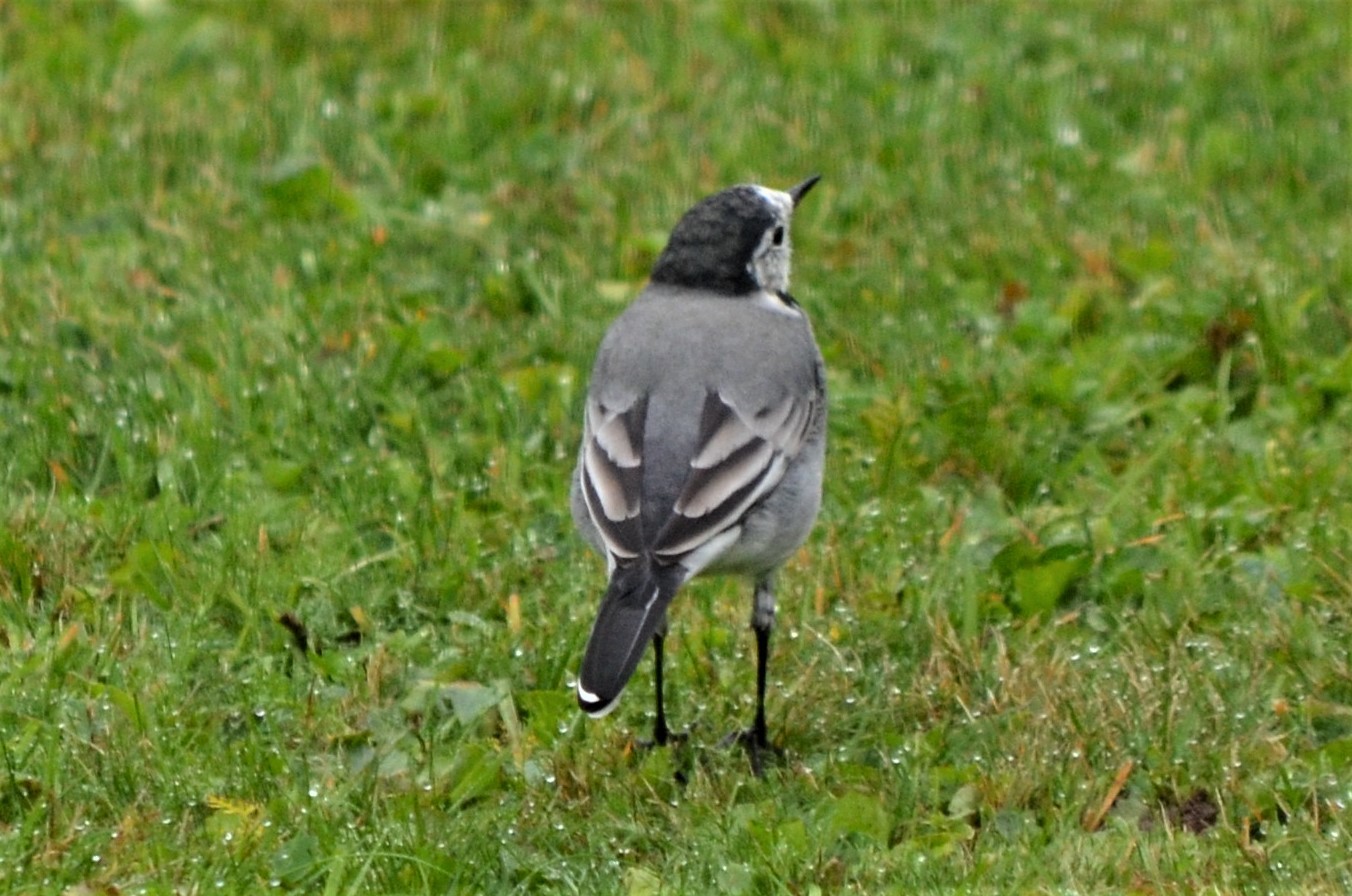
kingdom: Animalia
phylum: Chordata
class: Aves
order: Passeriformes
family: Motacillidae
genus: Motacilla
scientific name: Motacilla alba
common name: White wagtail
